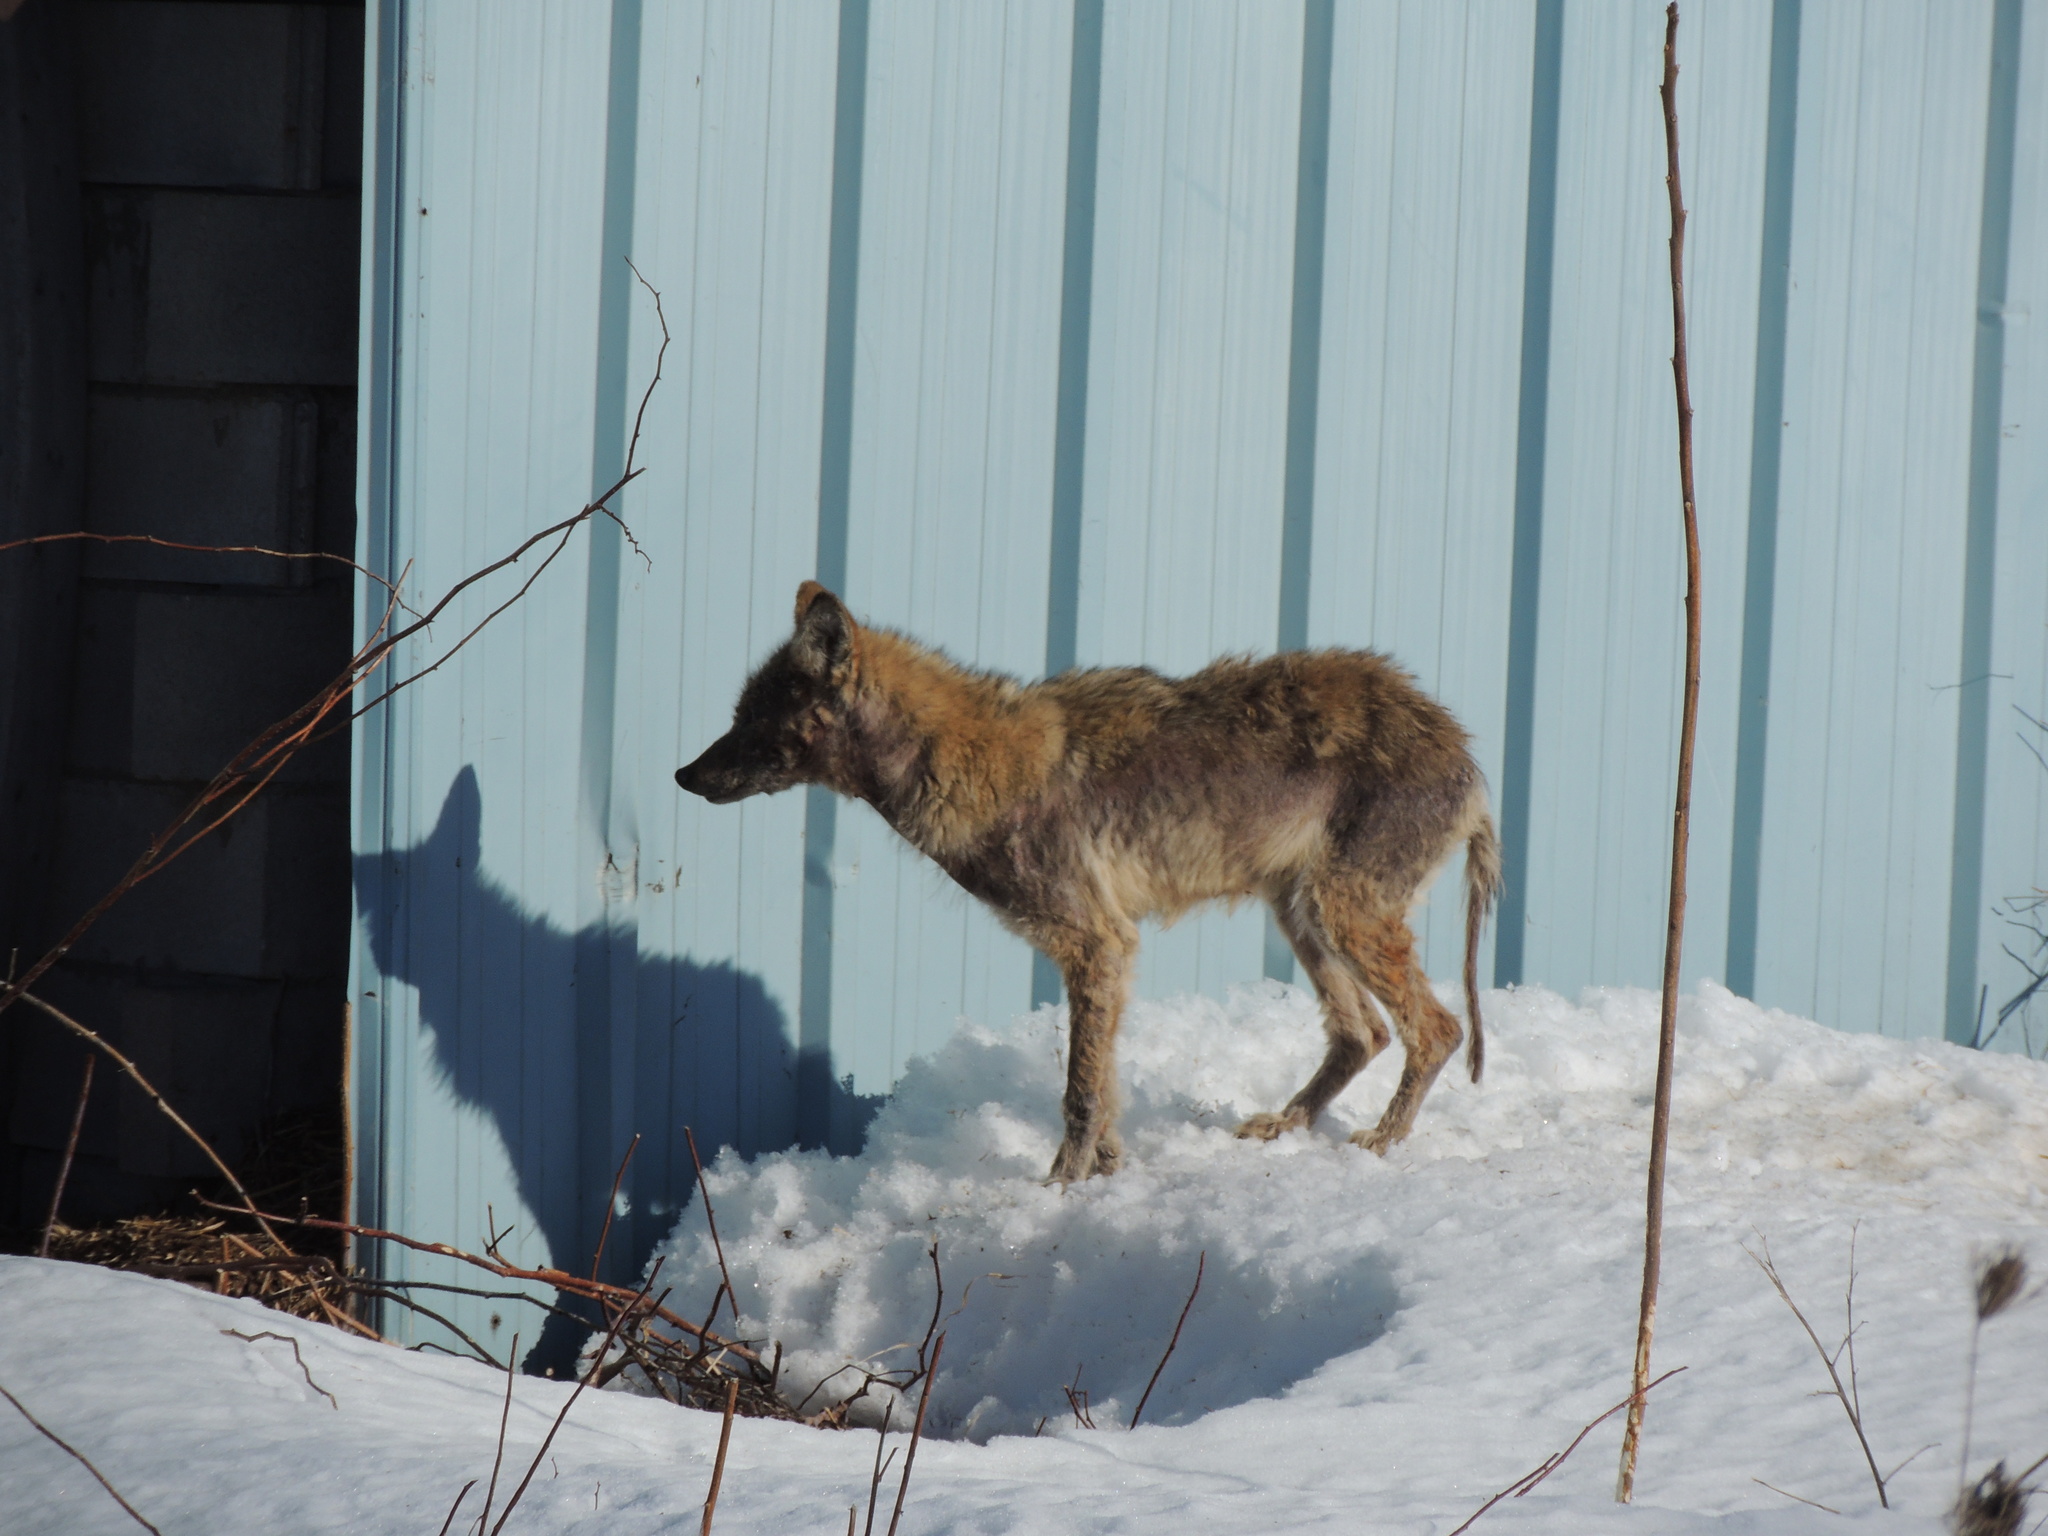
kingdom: Animalia
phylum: Chordata
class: Mammalia
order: Carnivora
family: Canidae
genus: Canis
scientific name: Canis latrans
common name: Coyote
